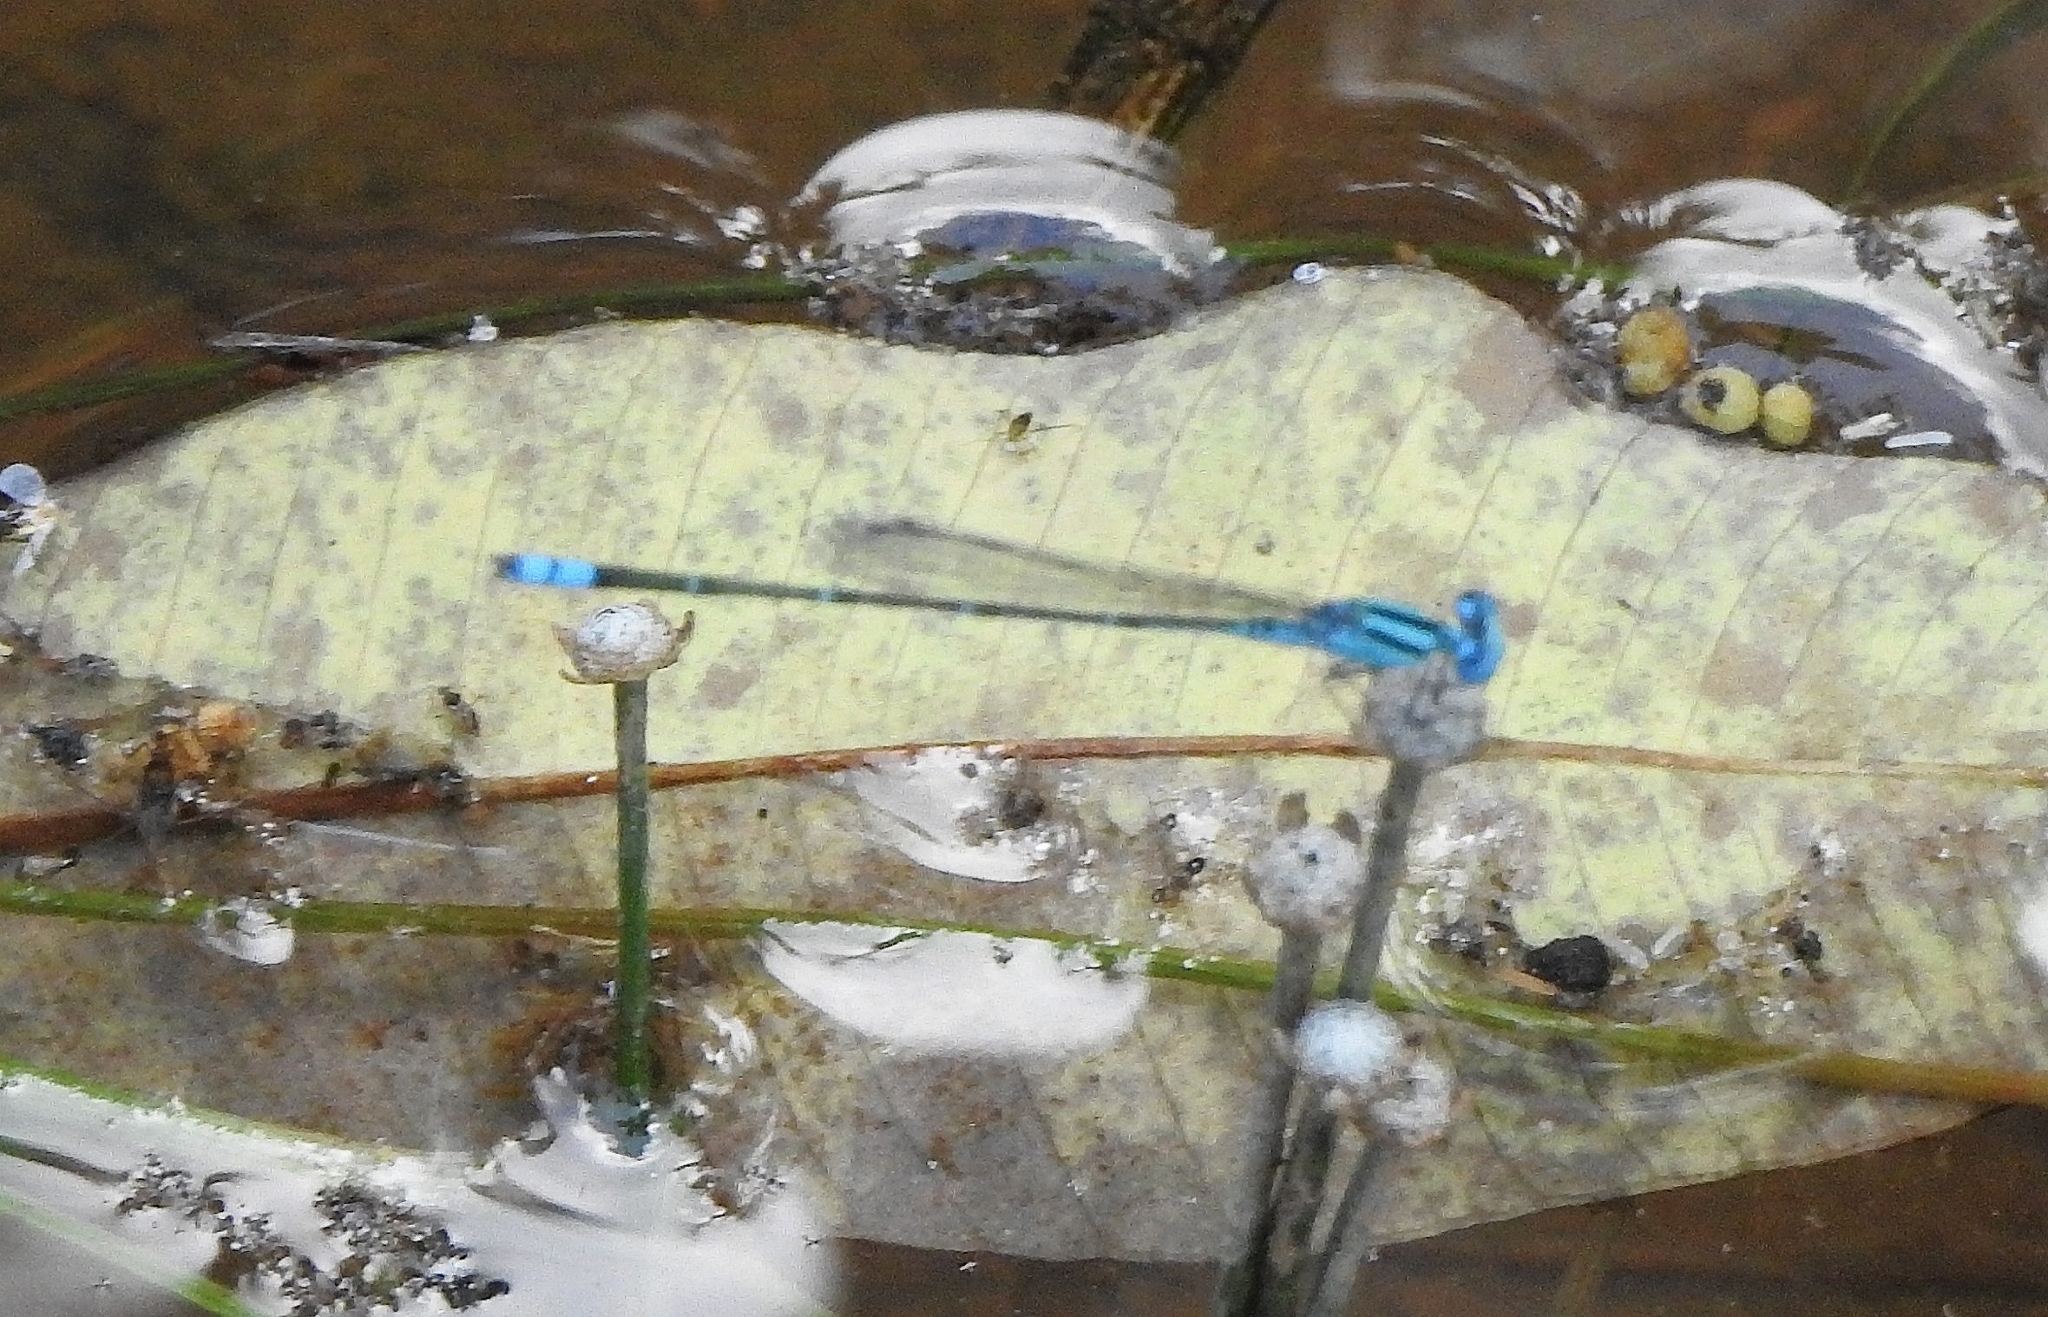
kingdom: Animalia
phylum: Arthropoda
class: Insecta
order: Odonata
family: Coenagrionidae
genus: Pseudagrion
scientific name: Pseudagrion microcephalum
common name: Blue riverdamsel
